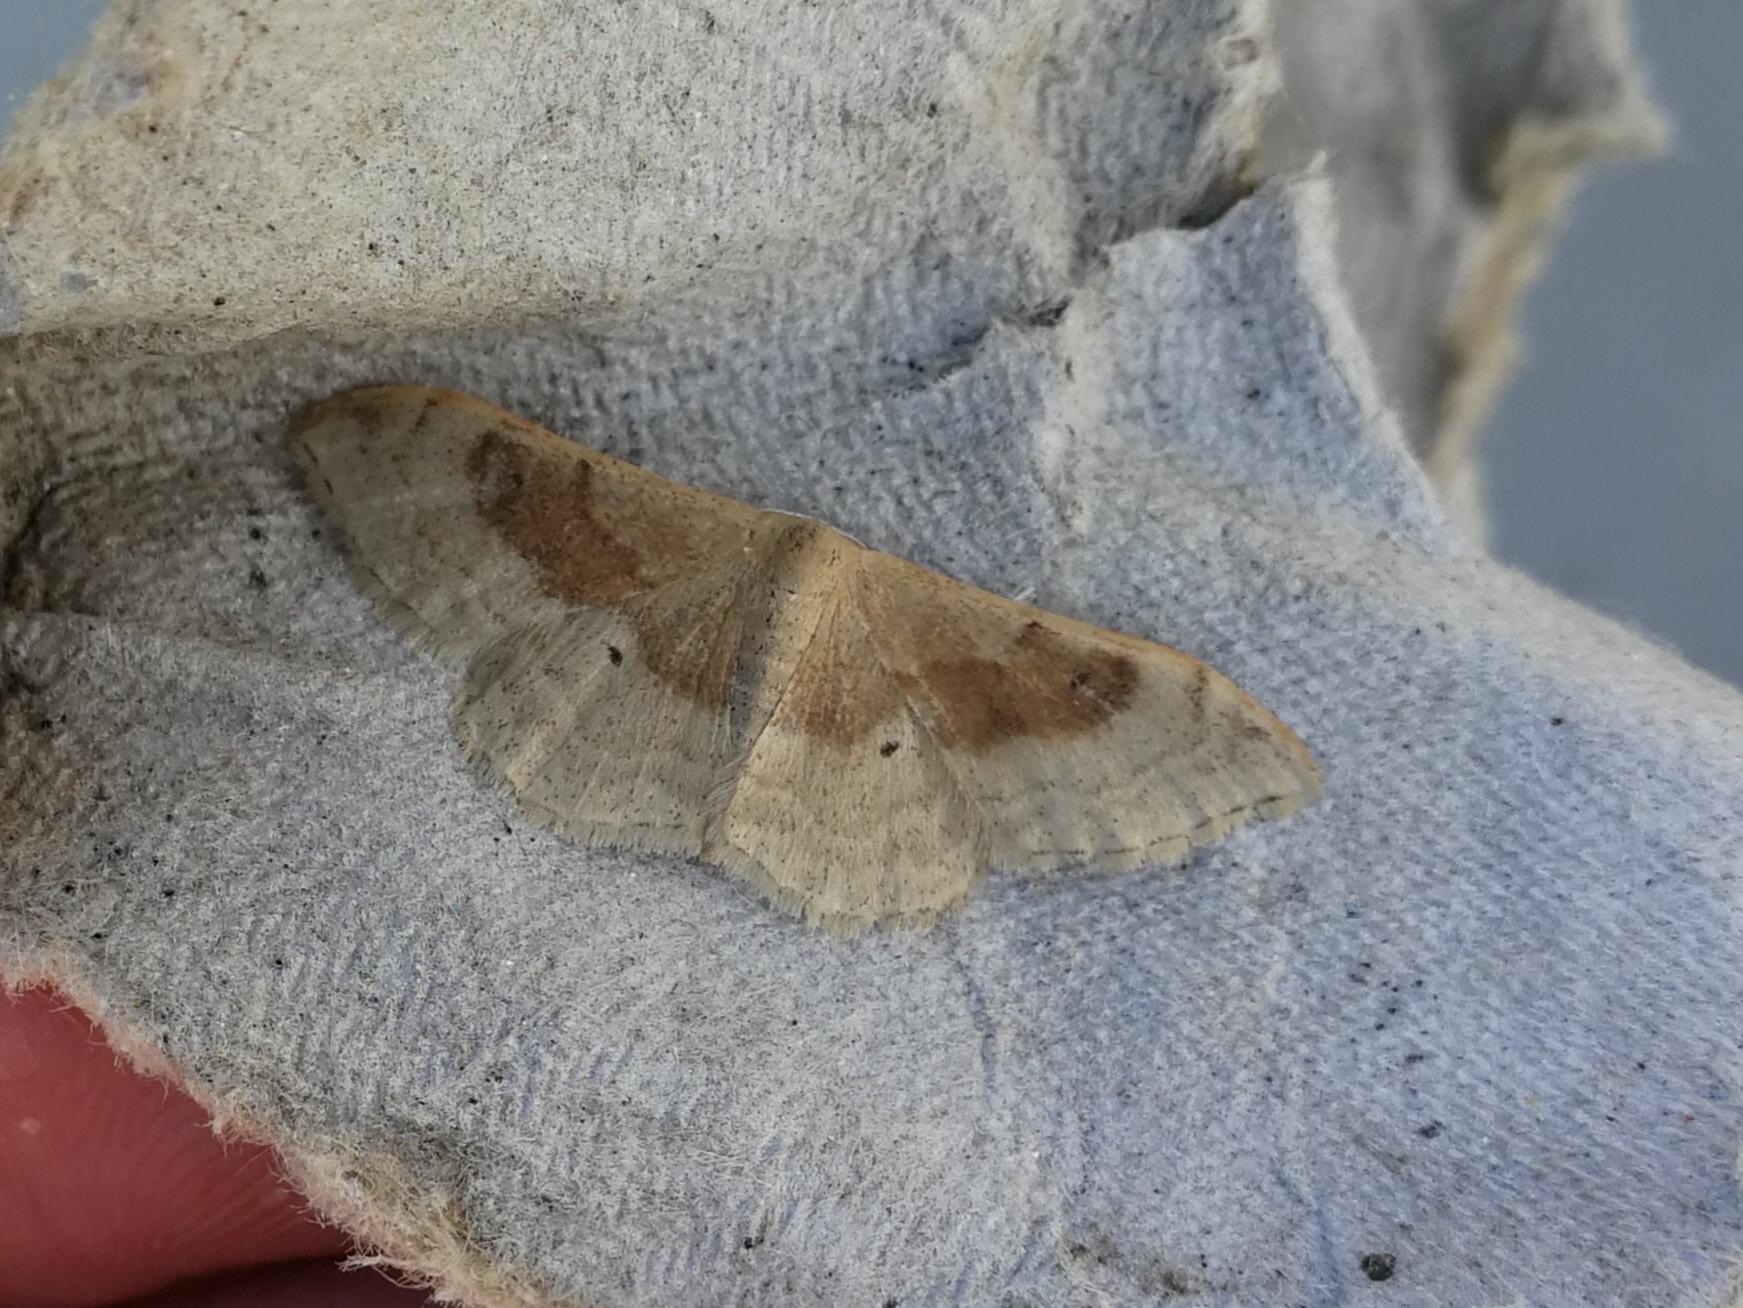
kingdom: Animalia
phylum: Arthropoda
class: Insecta
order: Lepidoptera
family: Geometridae
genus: Idaea
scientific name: Idaea degeneraria
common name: Portland ribbon wave
